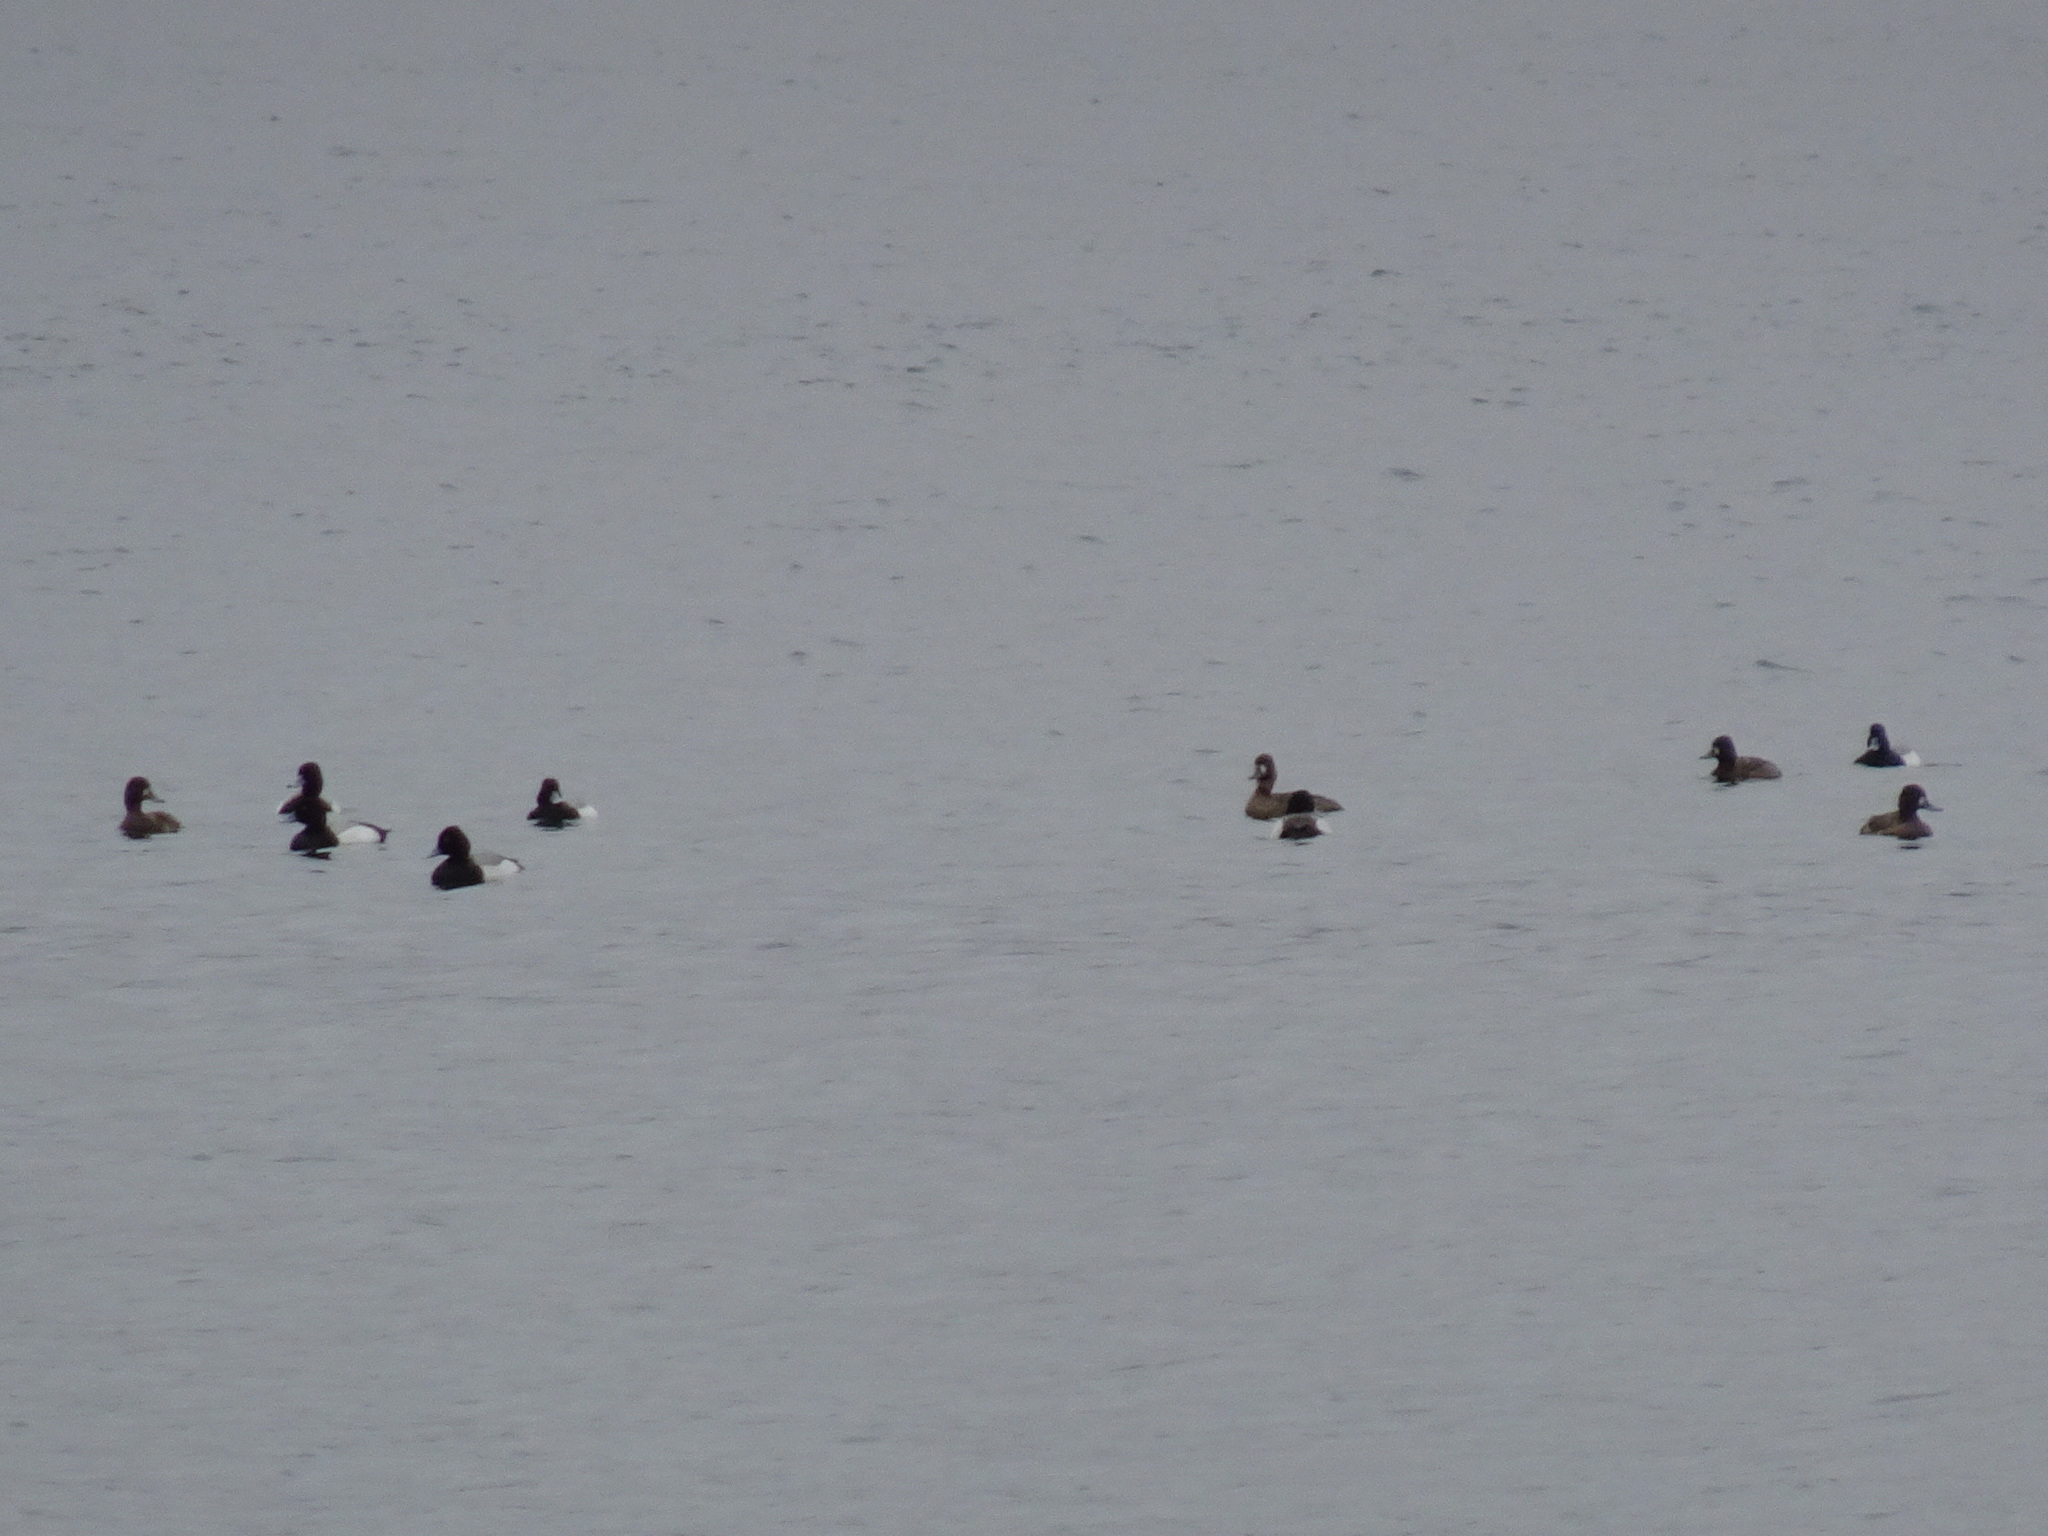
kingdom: Animalia
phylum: Chordata
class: Aves
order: Anseriformes
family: Anatidae
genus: Aythya
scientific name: Aythya affinis
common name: Lesser scaup
